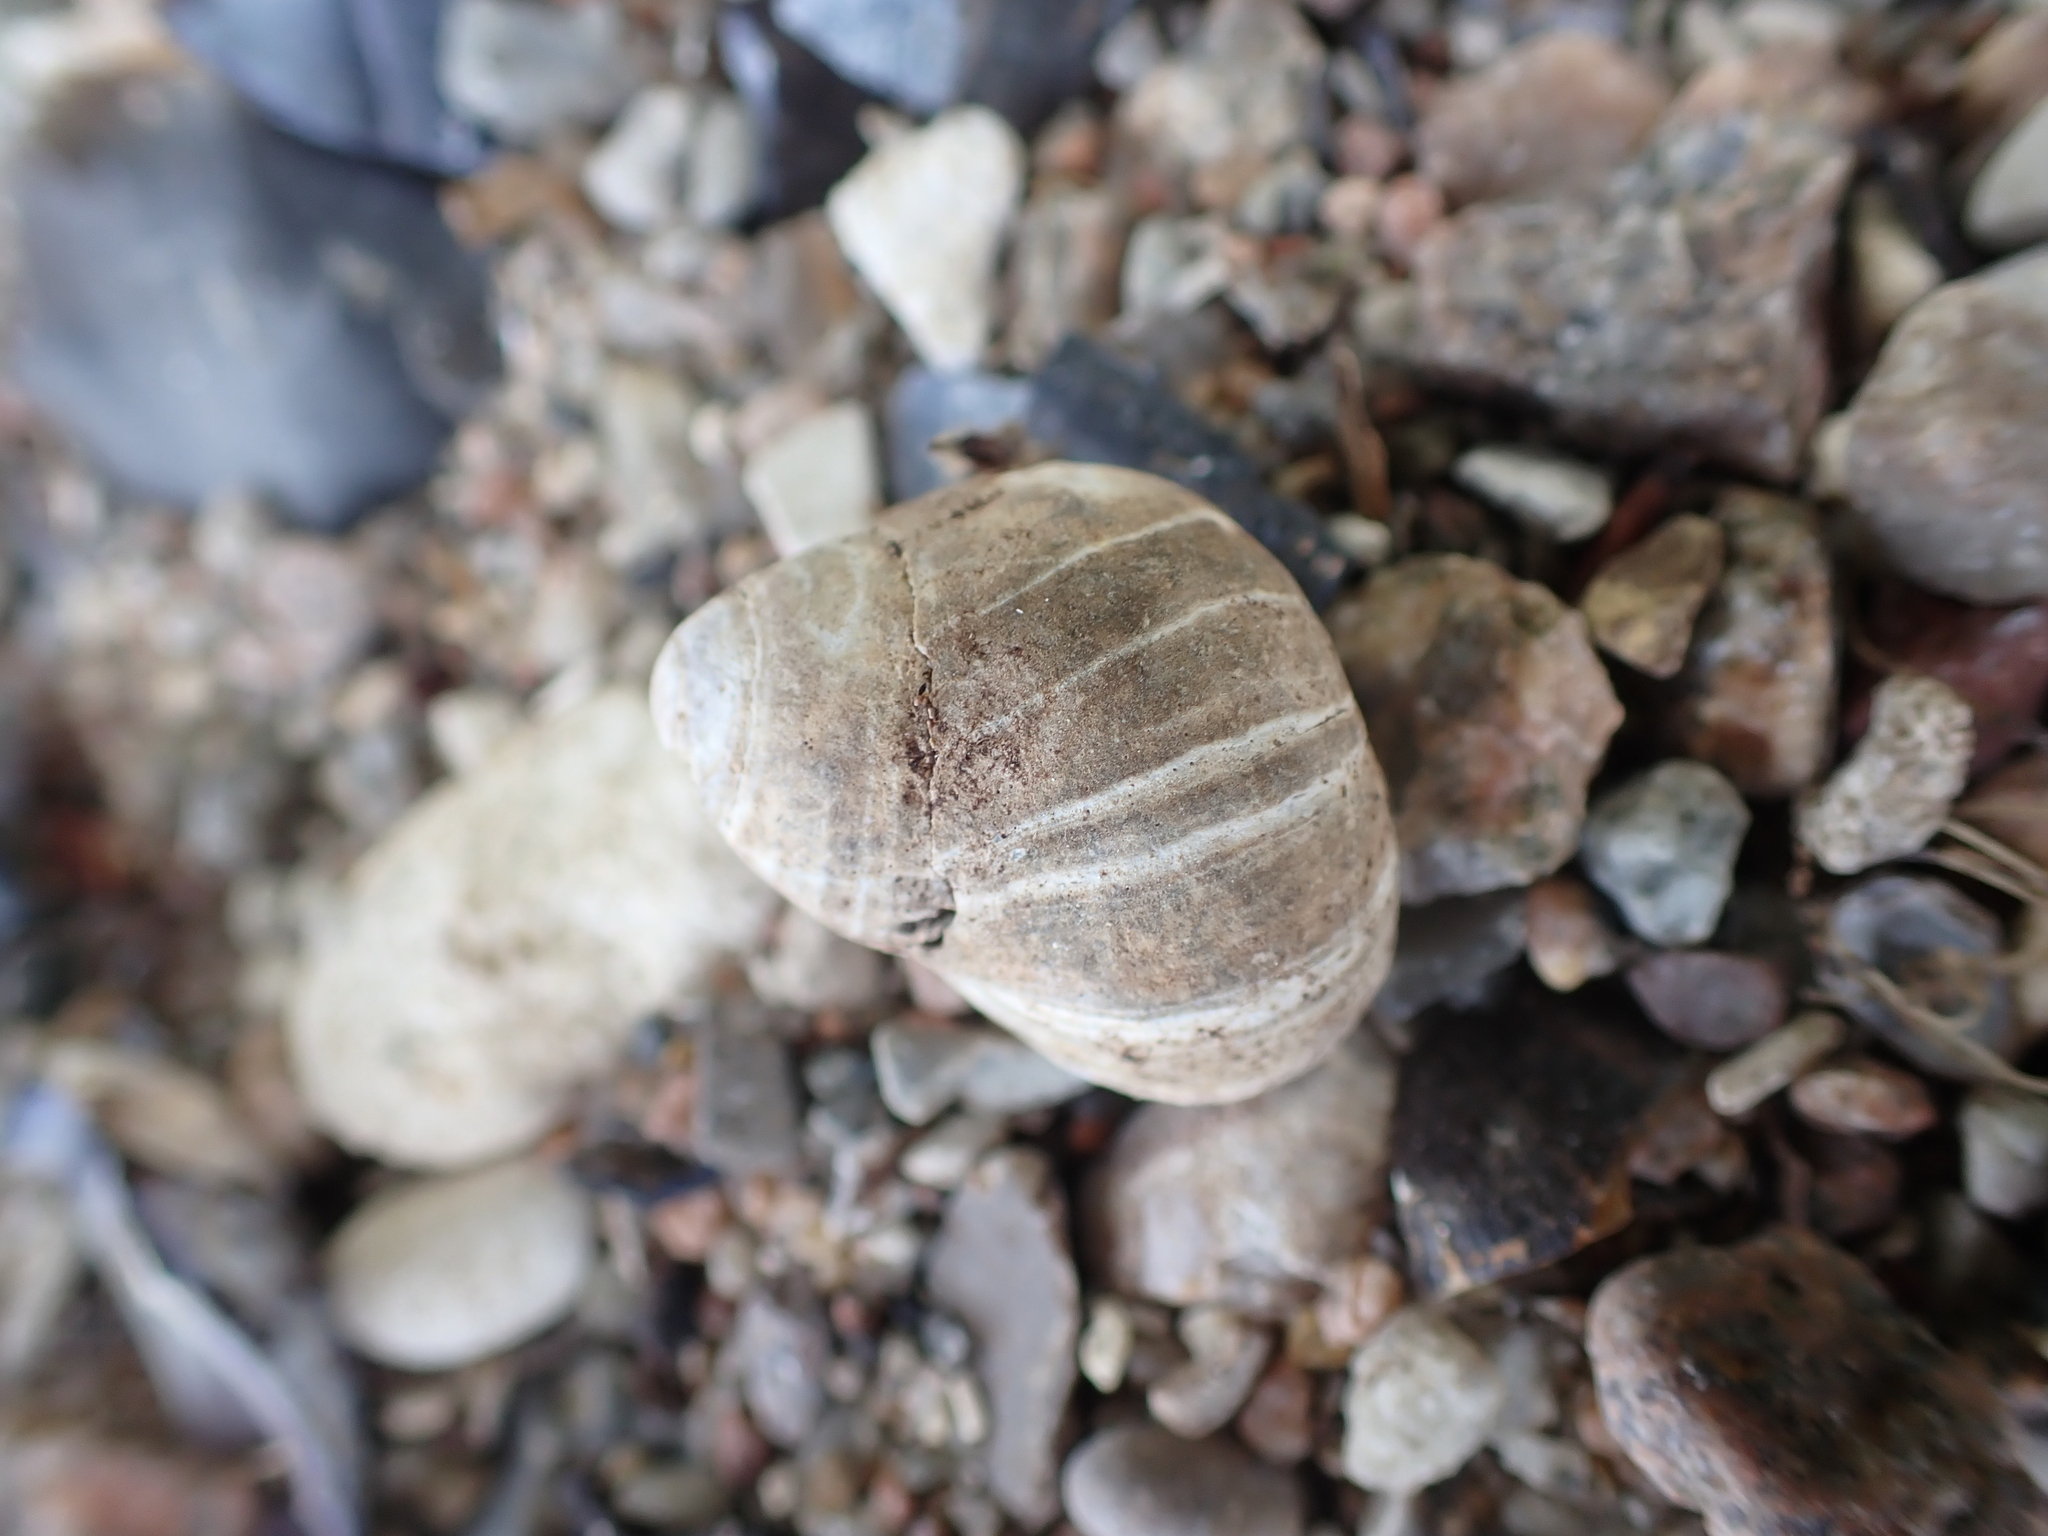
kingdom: Animalia
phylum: Mollusca
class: Gastropoda
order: Littorinimorpha
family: Littorinidae
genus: Littorina
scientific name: Littorina littorea
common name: Common periwinkle
